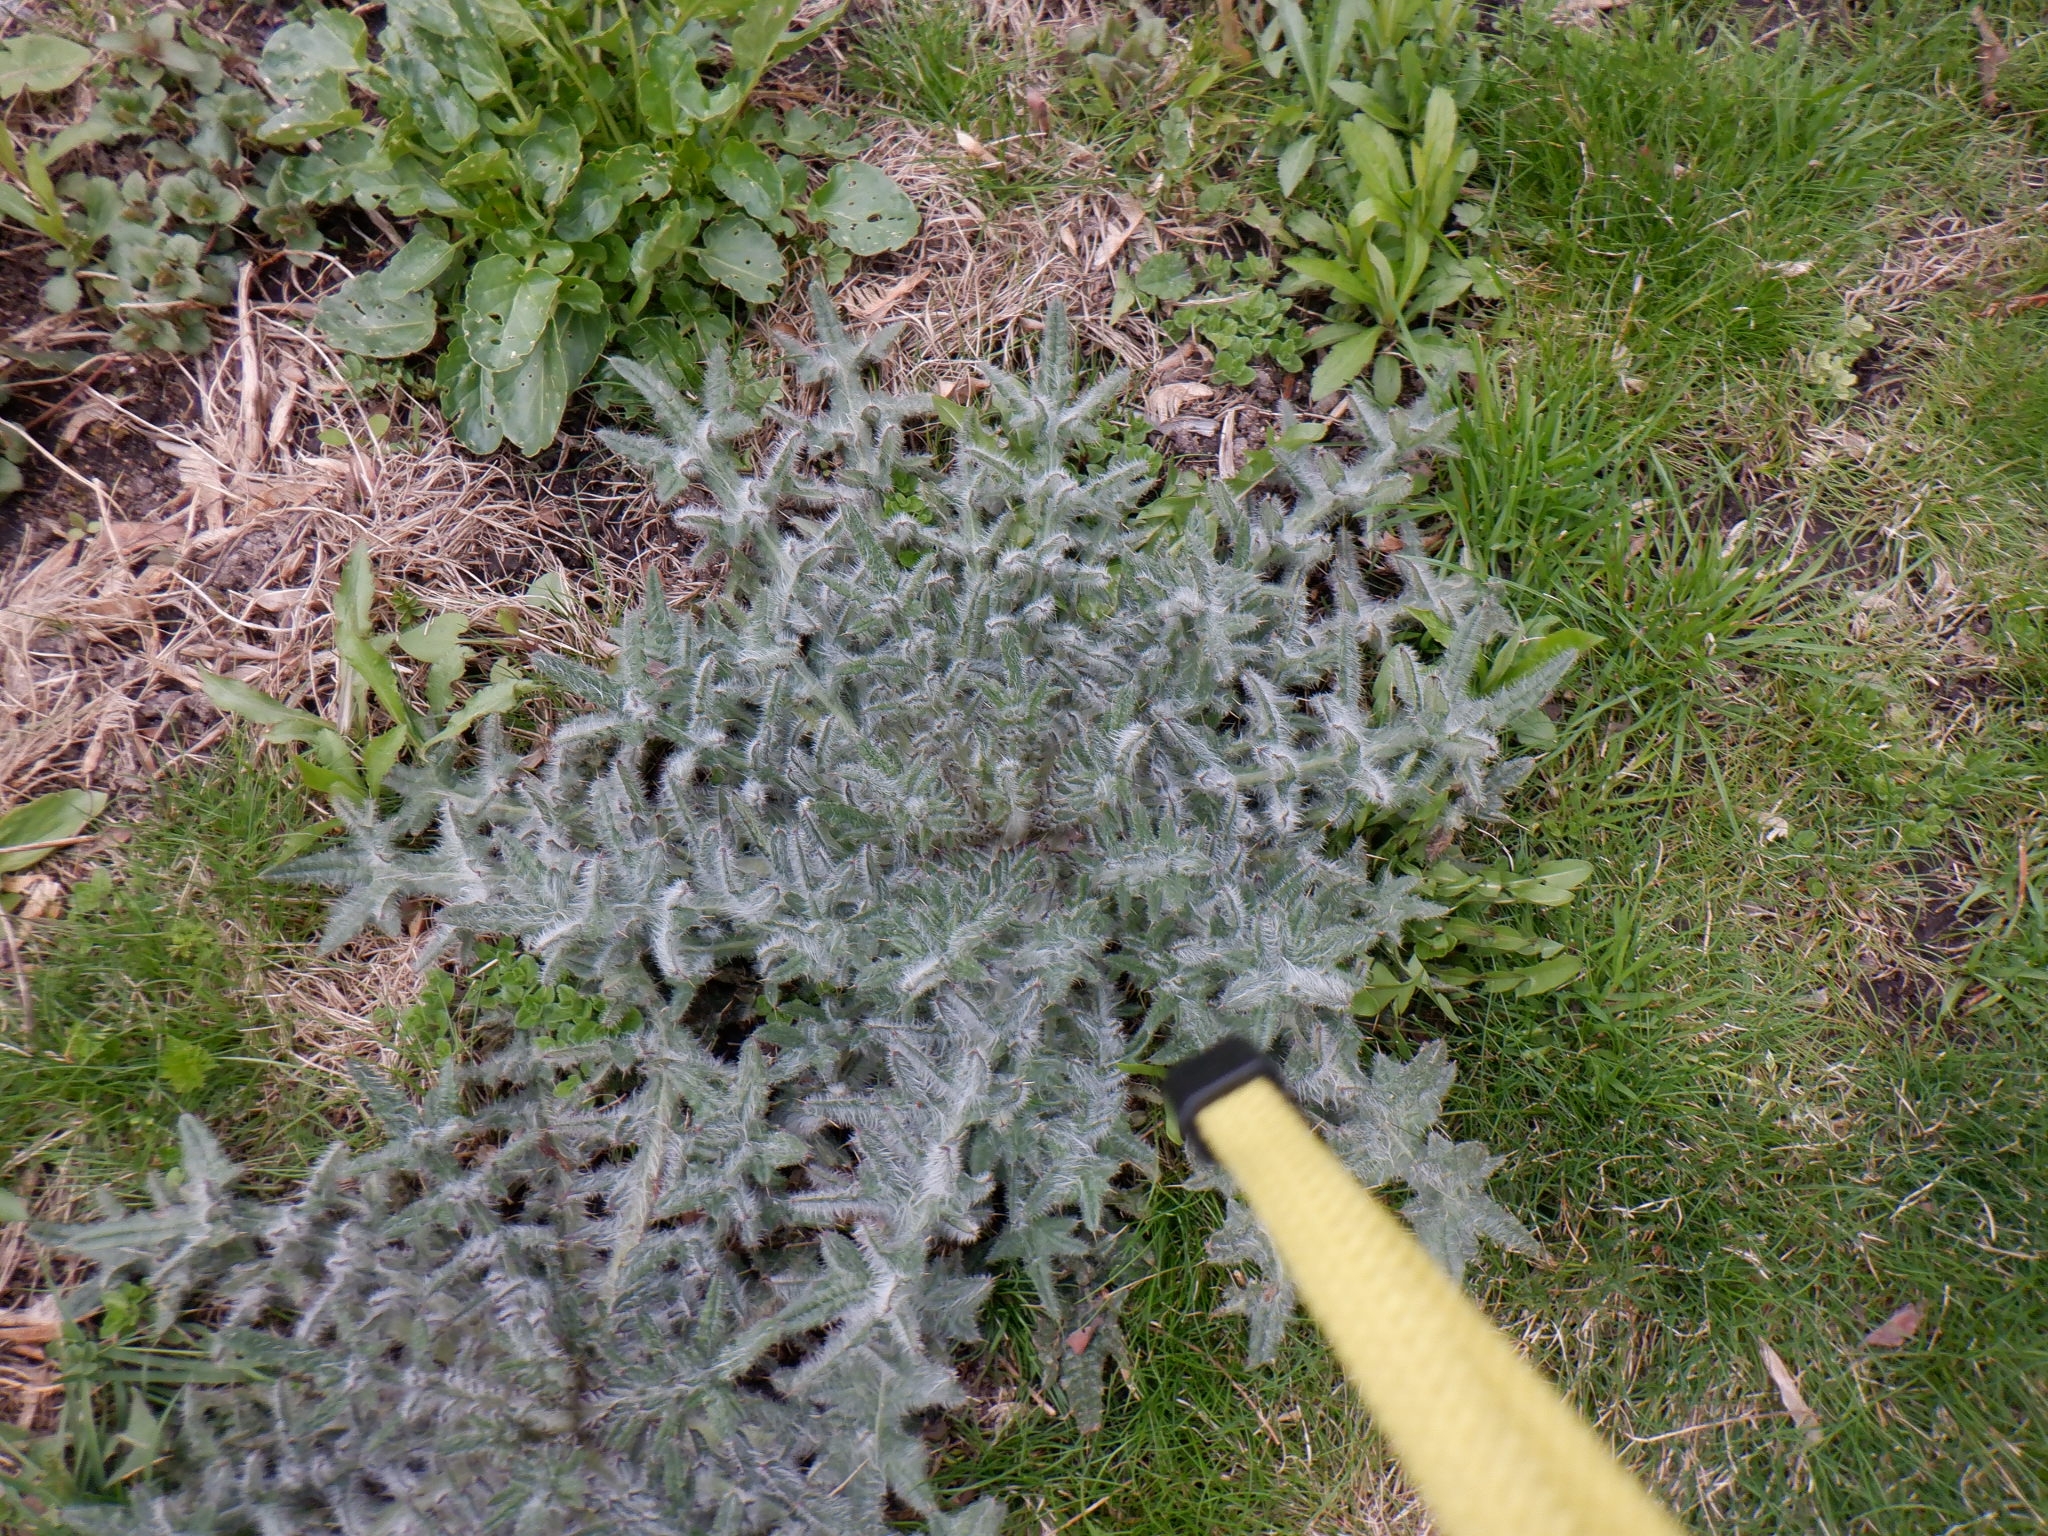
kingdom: Plantae
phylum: Tracheophyta
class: Magnoliopsida
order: Asterales
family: Asteraceae
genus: Cirsium
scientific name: Cirsium vulgare
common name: Bull thistle
